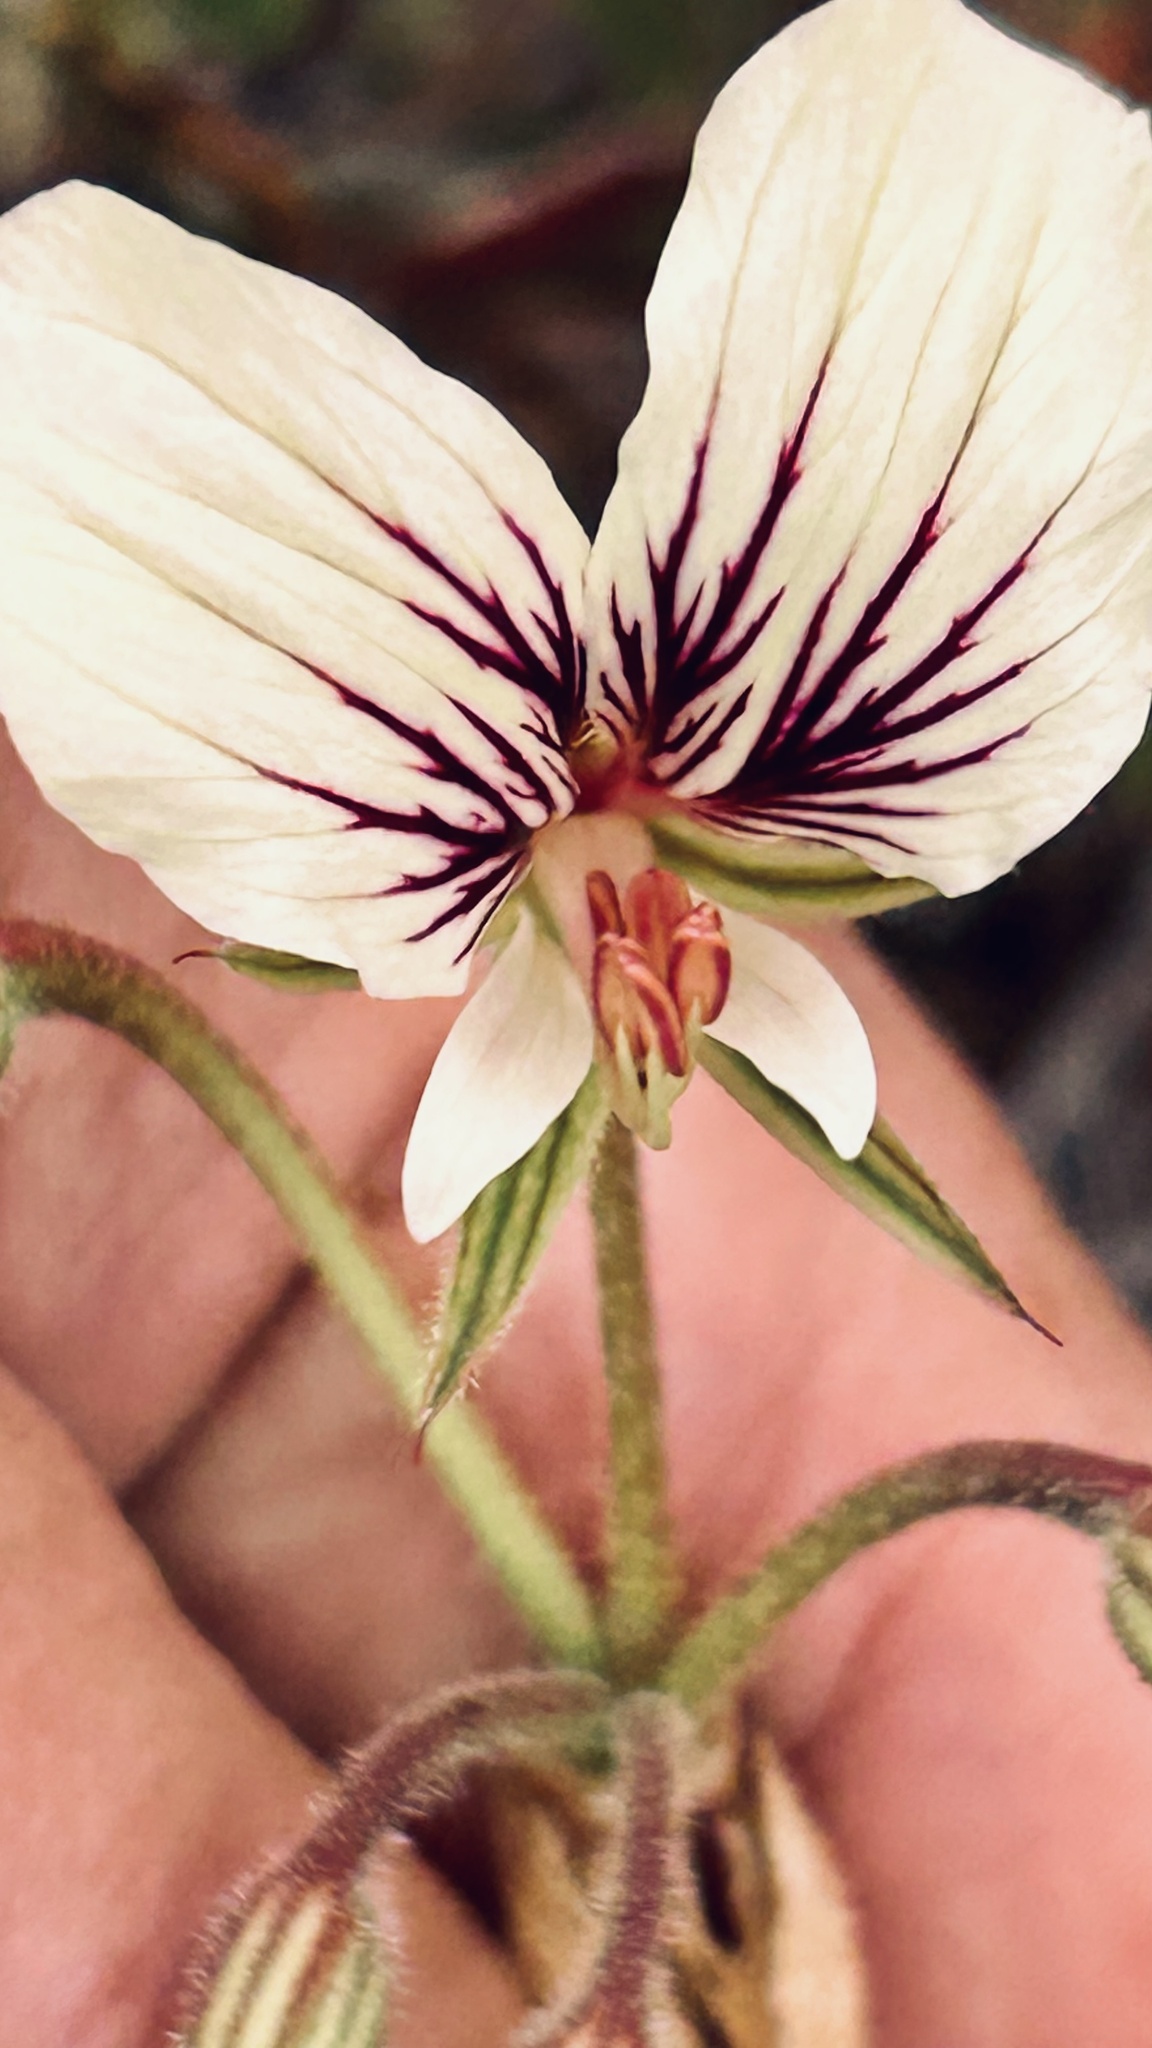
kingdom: Plantae
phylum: Tracheophyta
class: Magnoliopsida
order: Geraniales
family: Geraniaceae
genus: Pelargonium
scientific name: Pelargonium suburbanum
